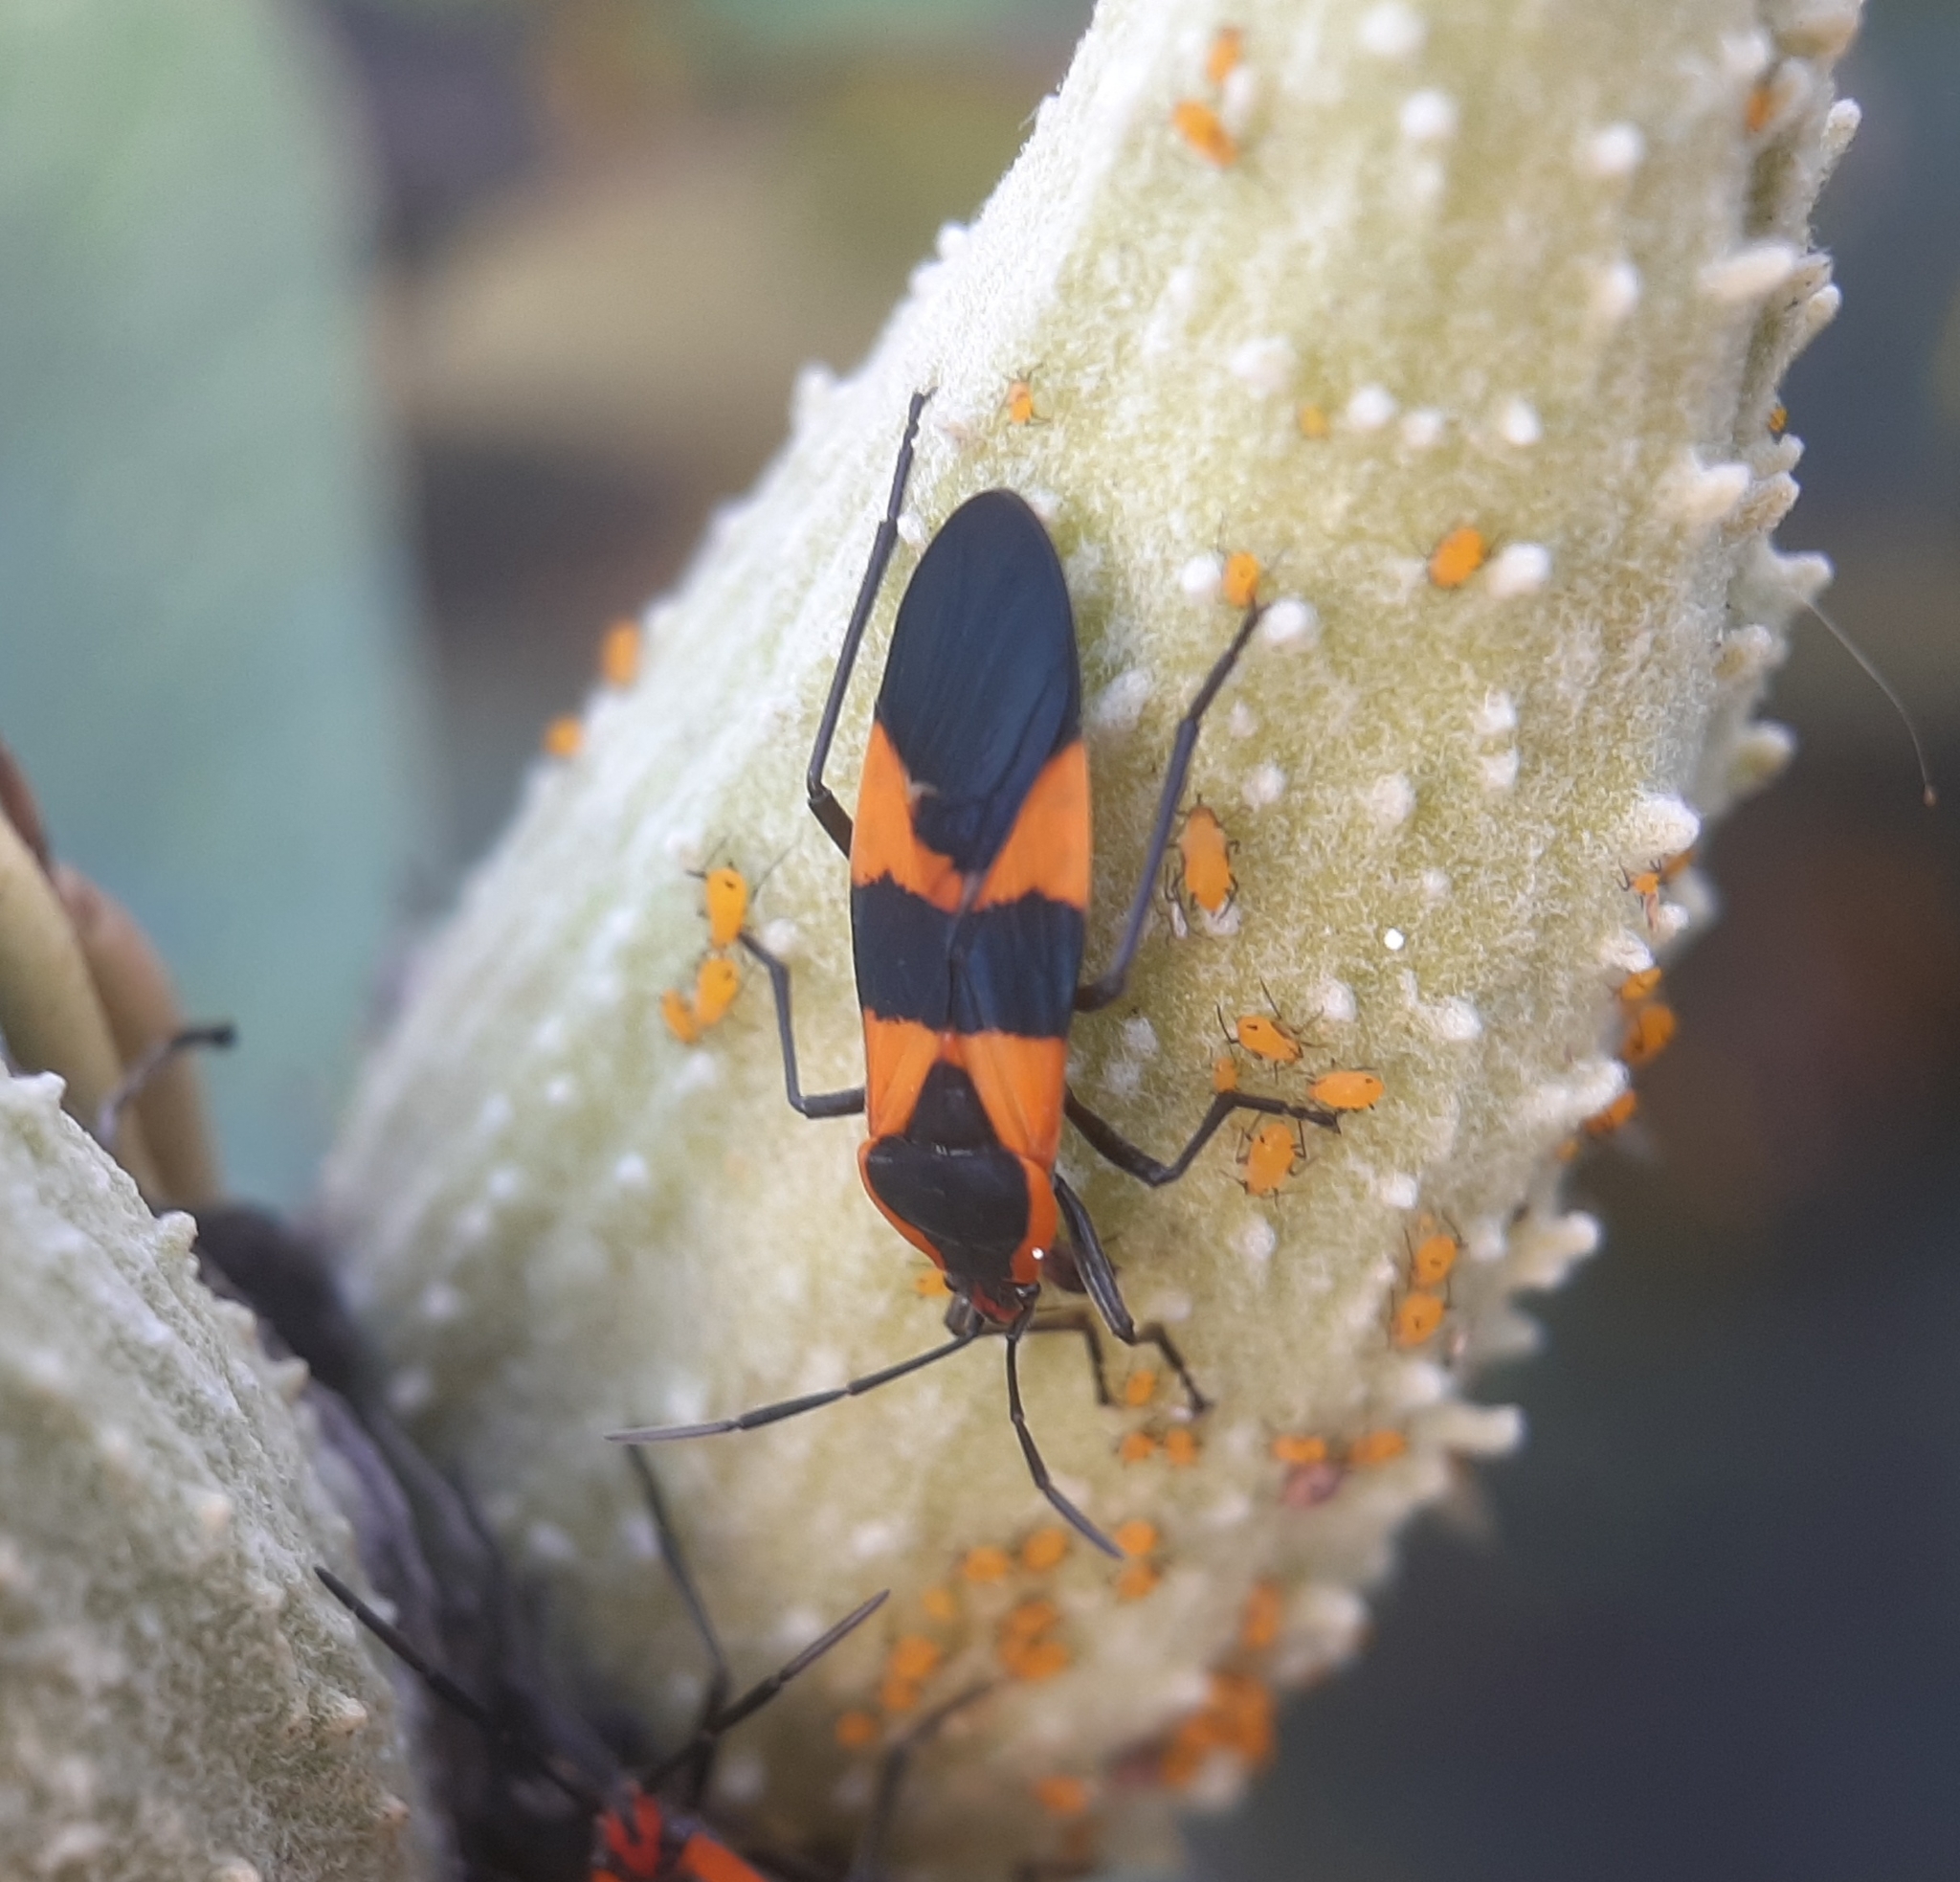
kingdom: Animalia
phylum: Arthropoda
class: Insecta
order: Hemiptera
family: Lygaeidae
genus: Oncopeltus
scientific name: Oncopeltus fasciatus
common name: Large milkweed bug
